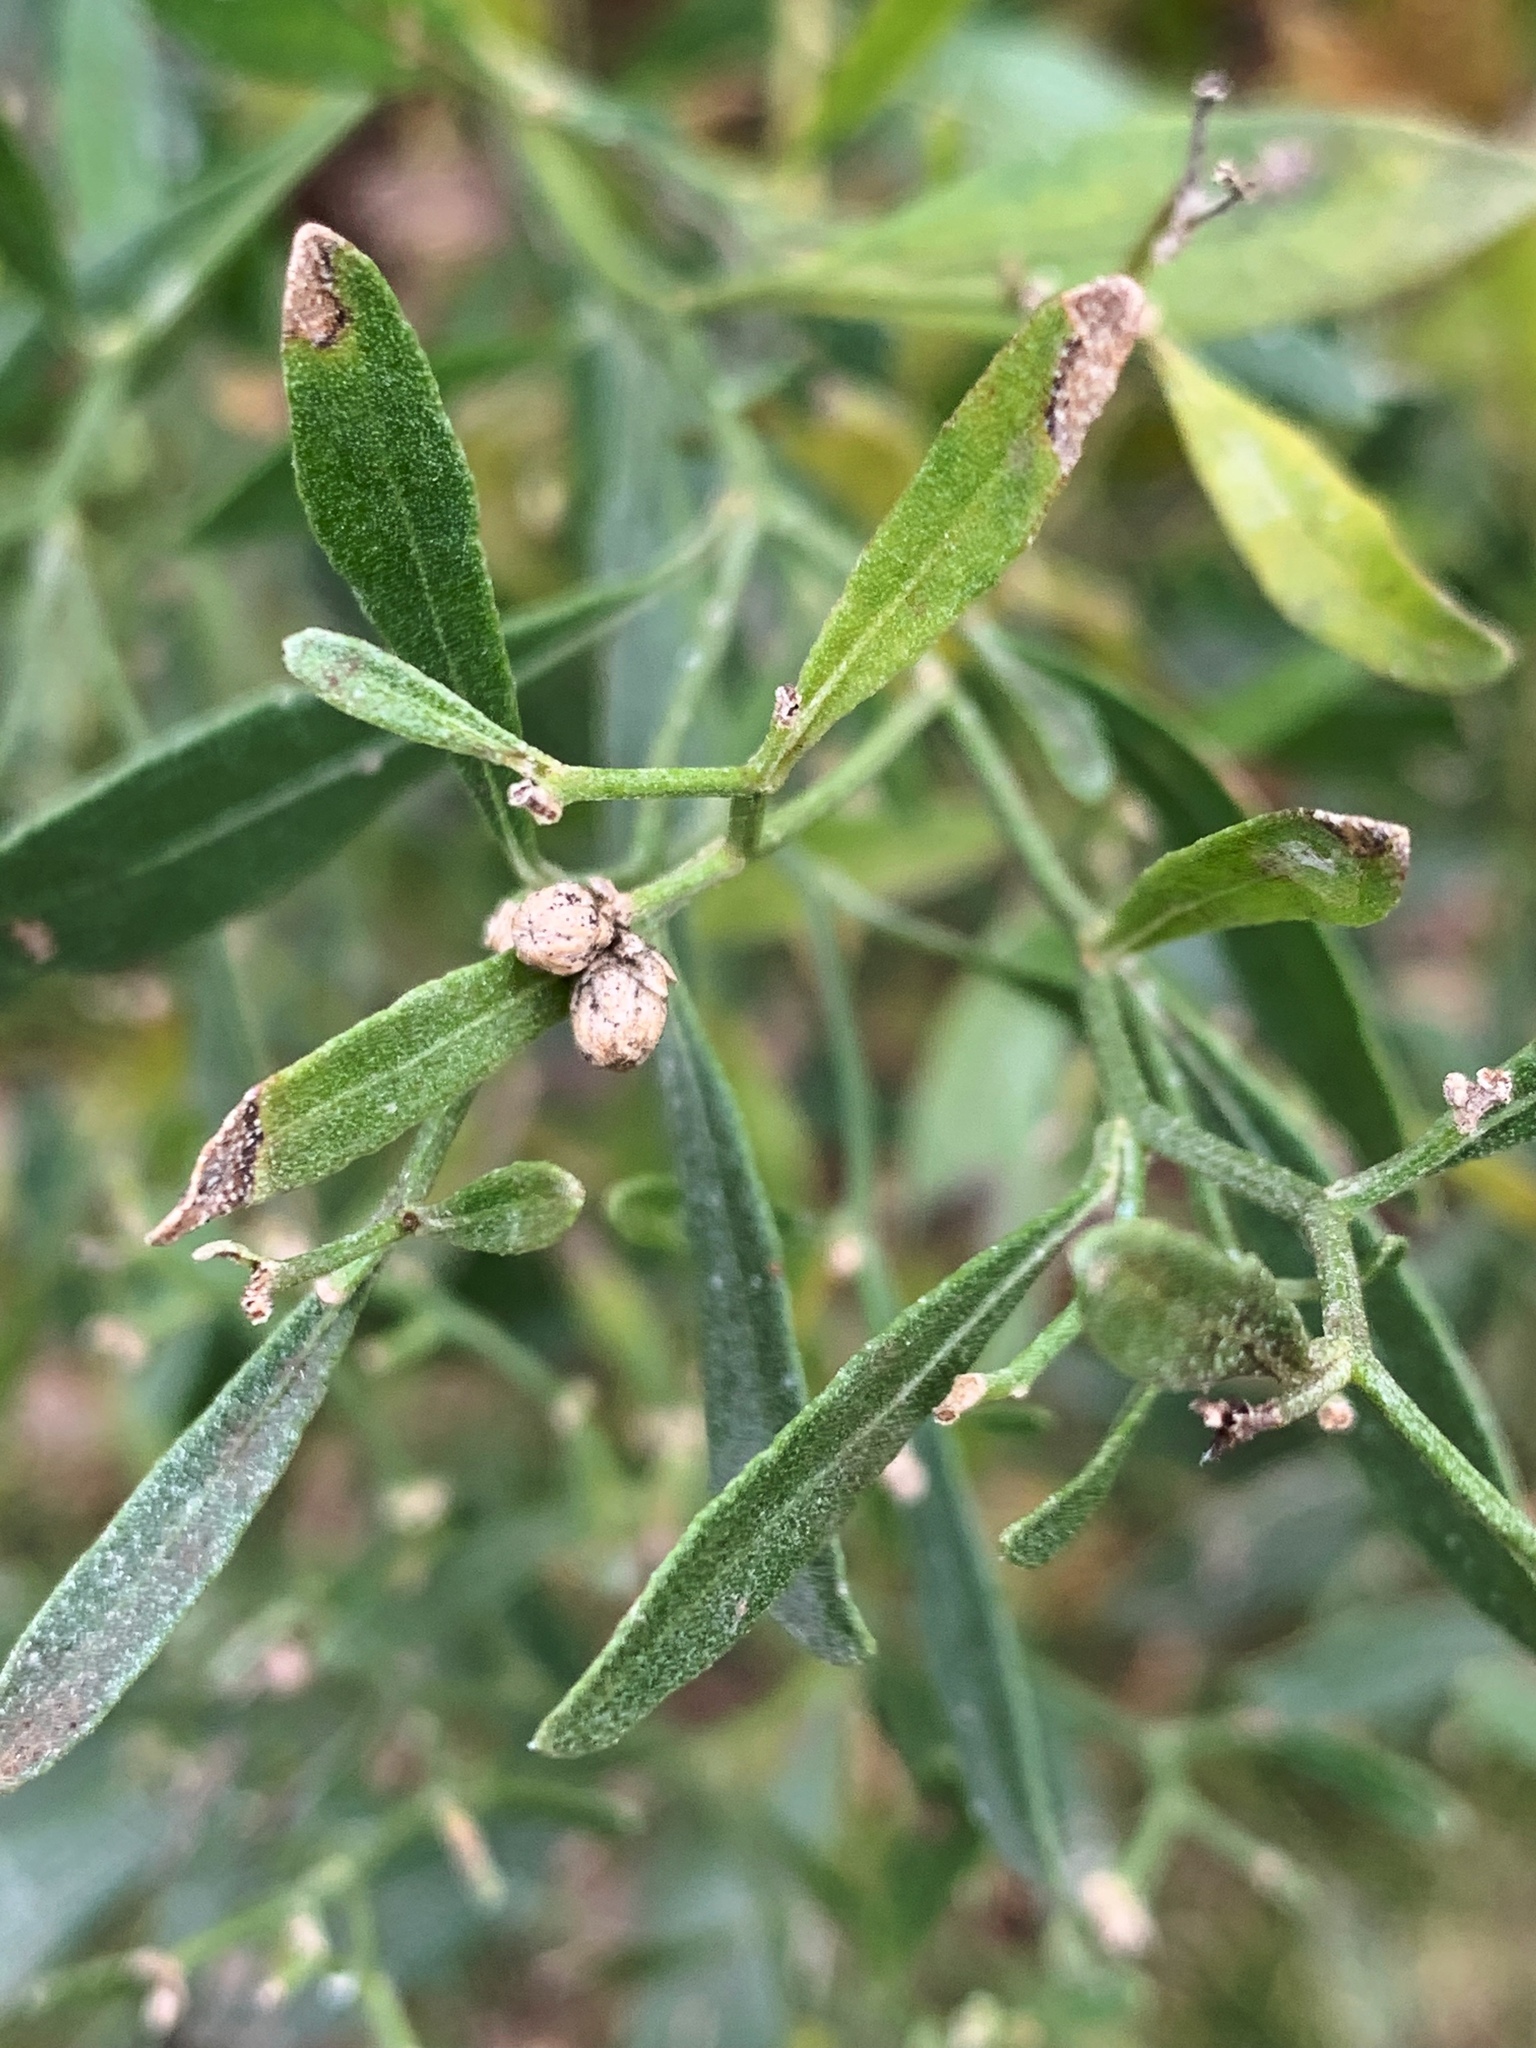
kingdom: Plantae
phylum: Tracheophyta
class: Magnoliopsida
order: Asterales
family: Asteraceae
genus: Baccharis
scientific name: Baccharis halimifolia
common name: Eastern baccharis
